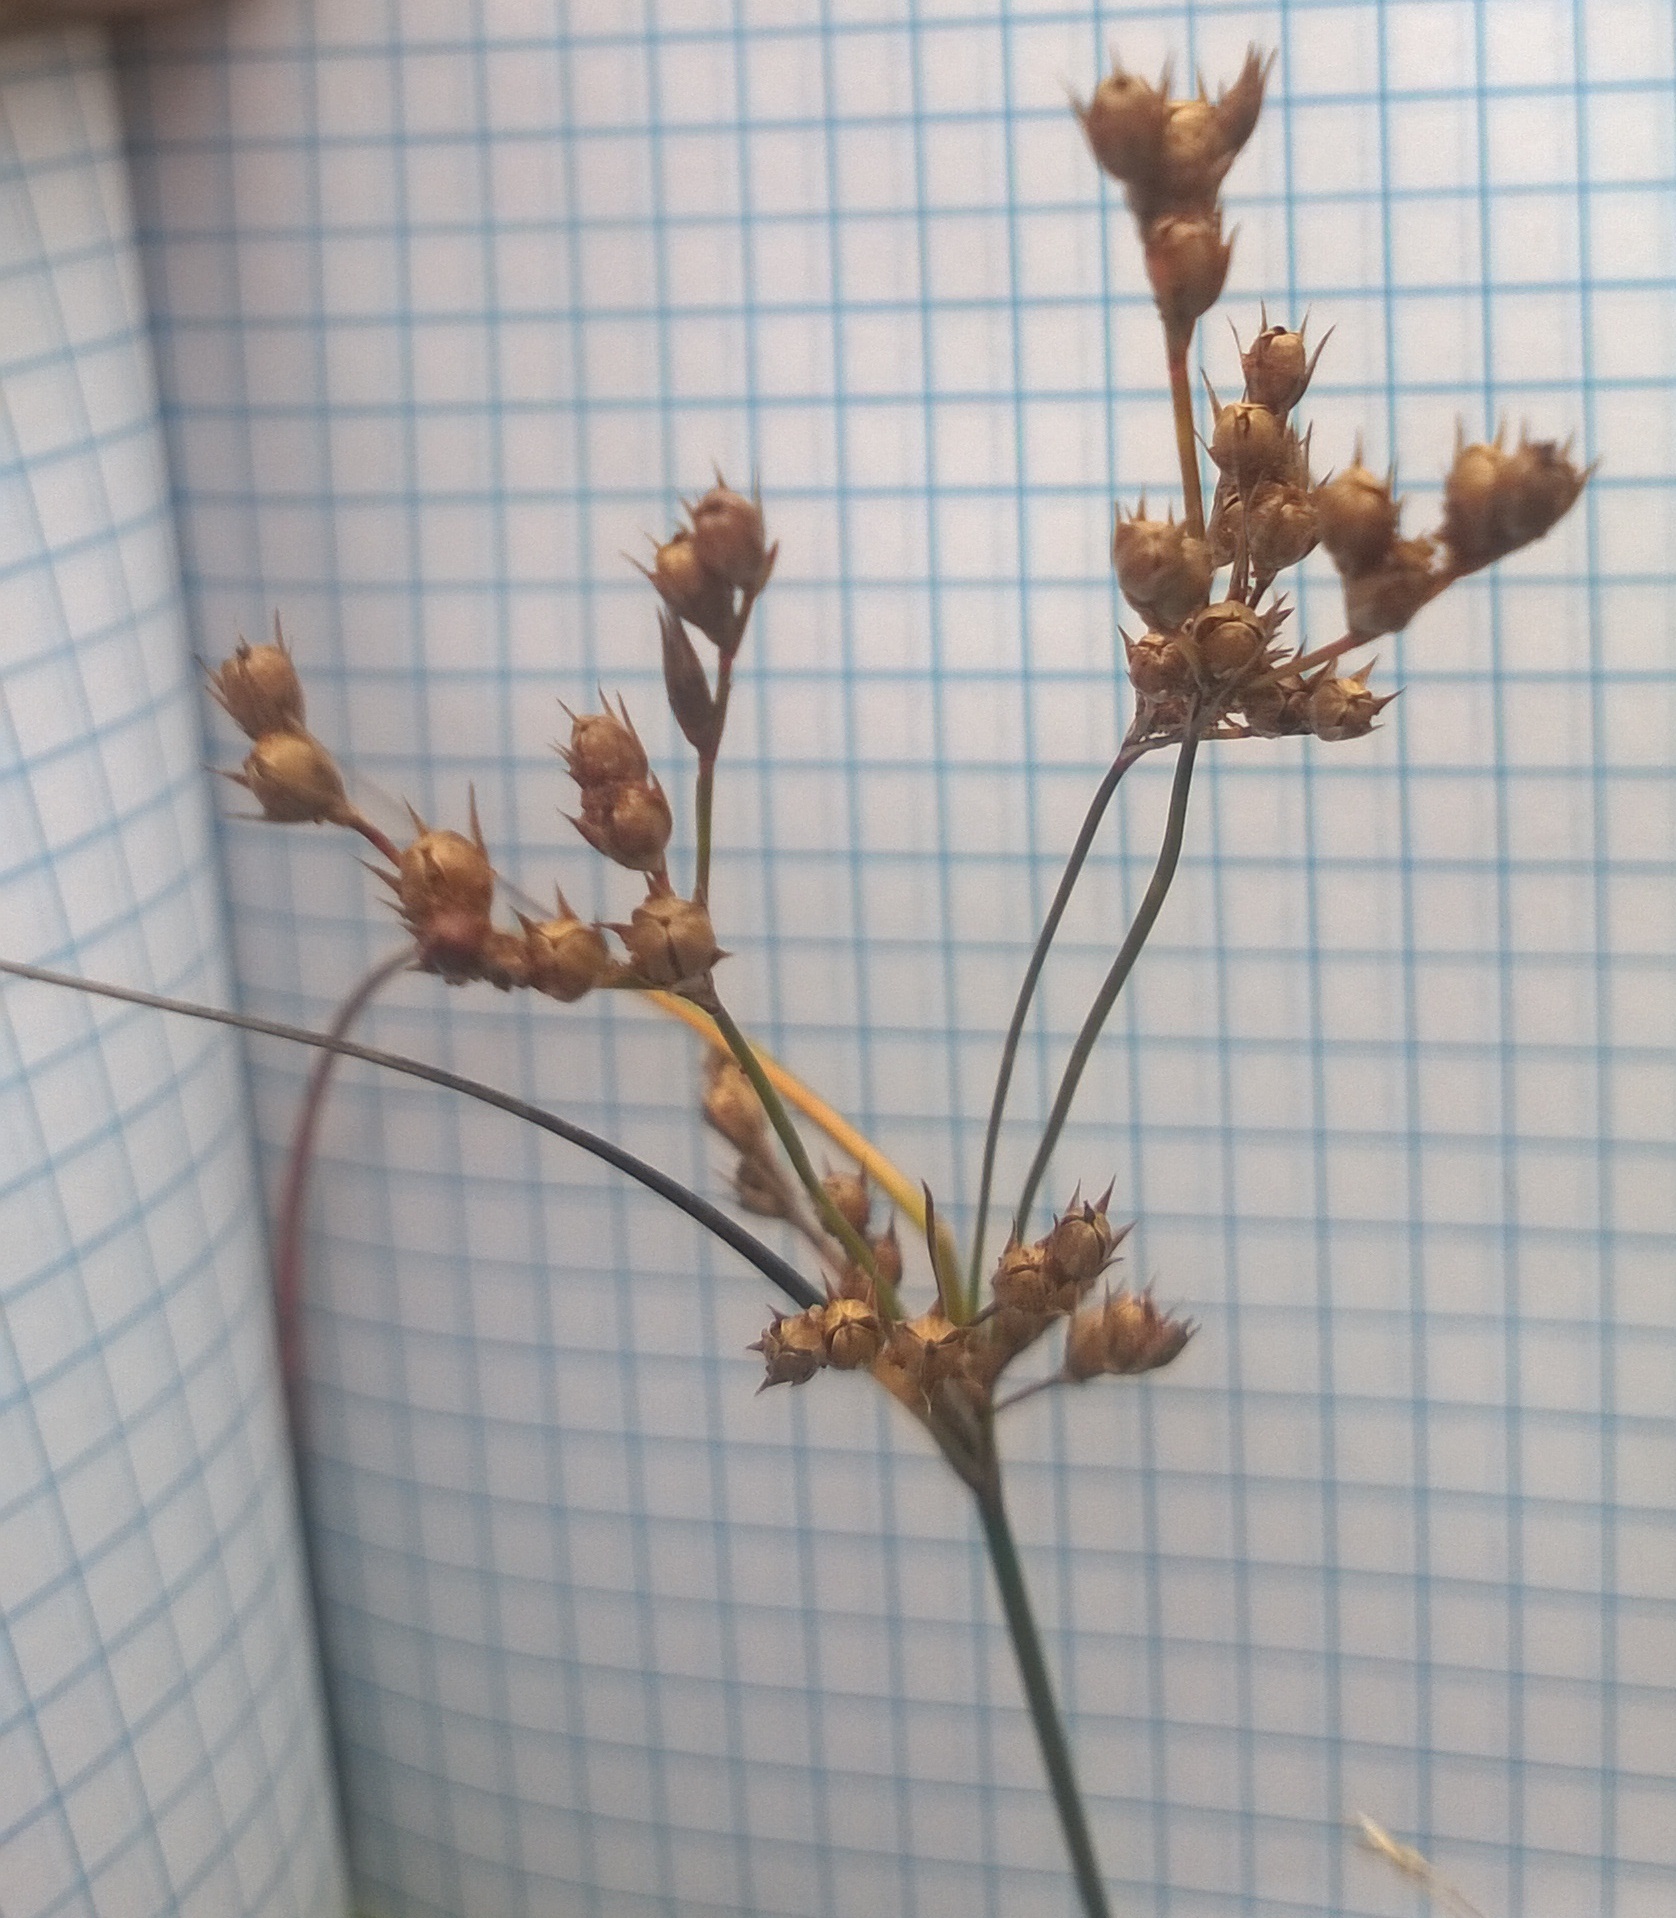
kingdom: Plantae
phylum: Tracheophyta
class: Liliopsida
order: Poales
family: Juncaceae
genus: Juncus
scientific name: Juncus tenuis
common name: Slender rush
